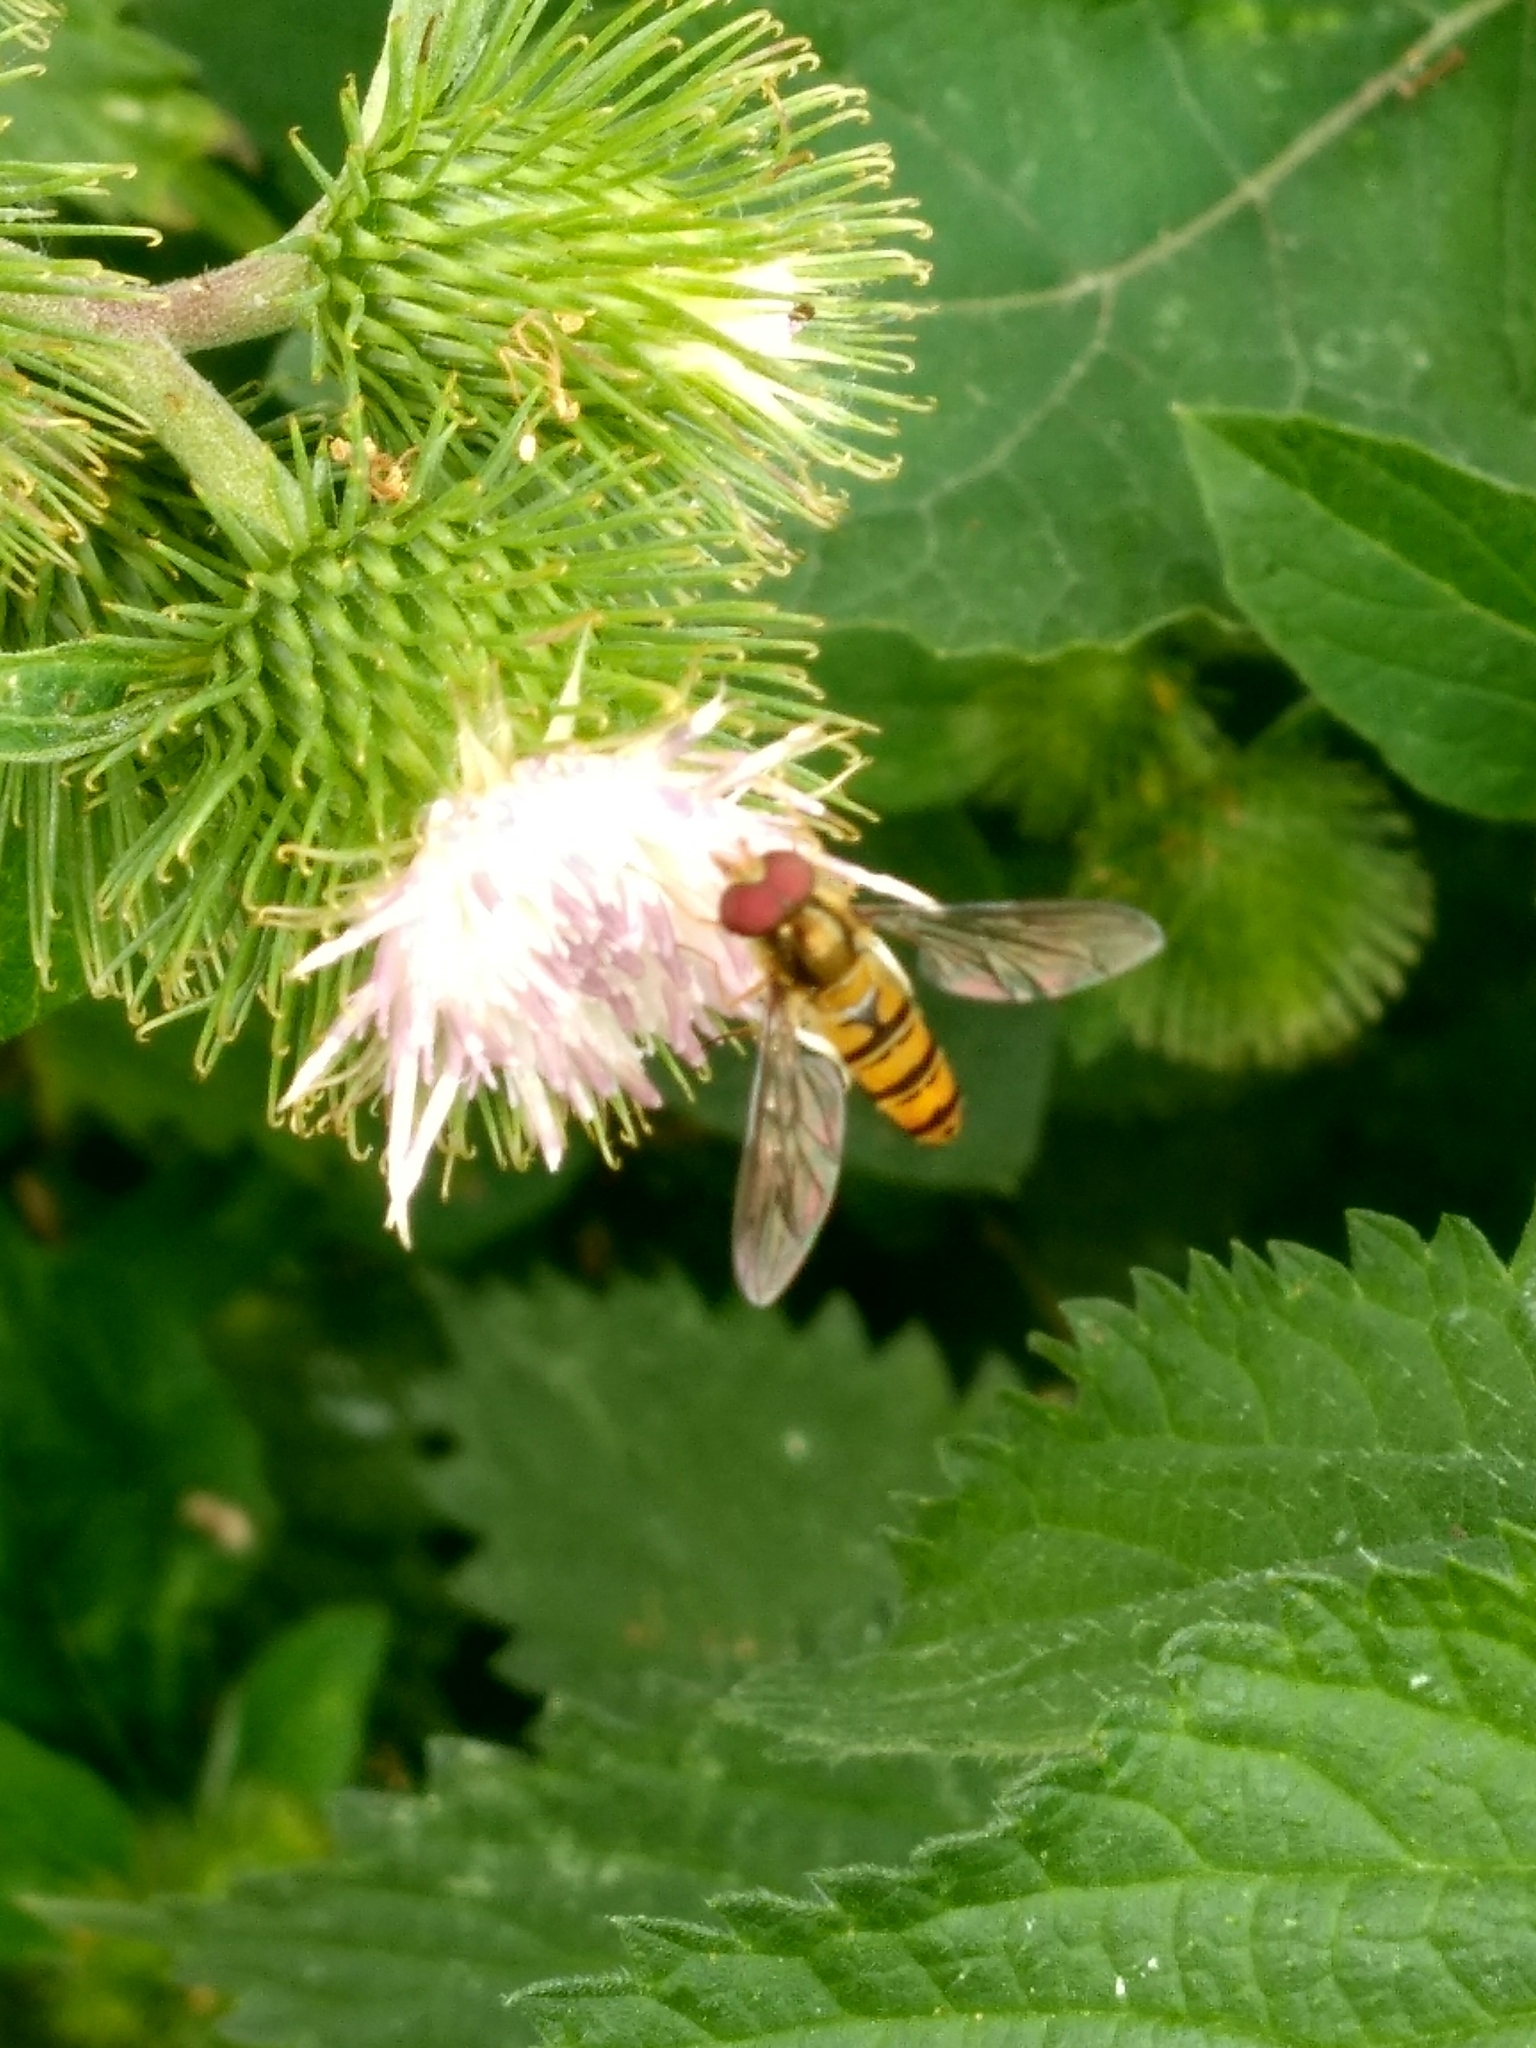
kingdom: Animalia
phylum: Arthropoda
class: Insecta
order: Diptera
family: Syrphidae
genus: Episyrphus
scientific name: Episyrphus balteatus
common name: Marmalade hoverfly
